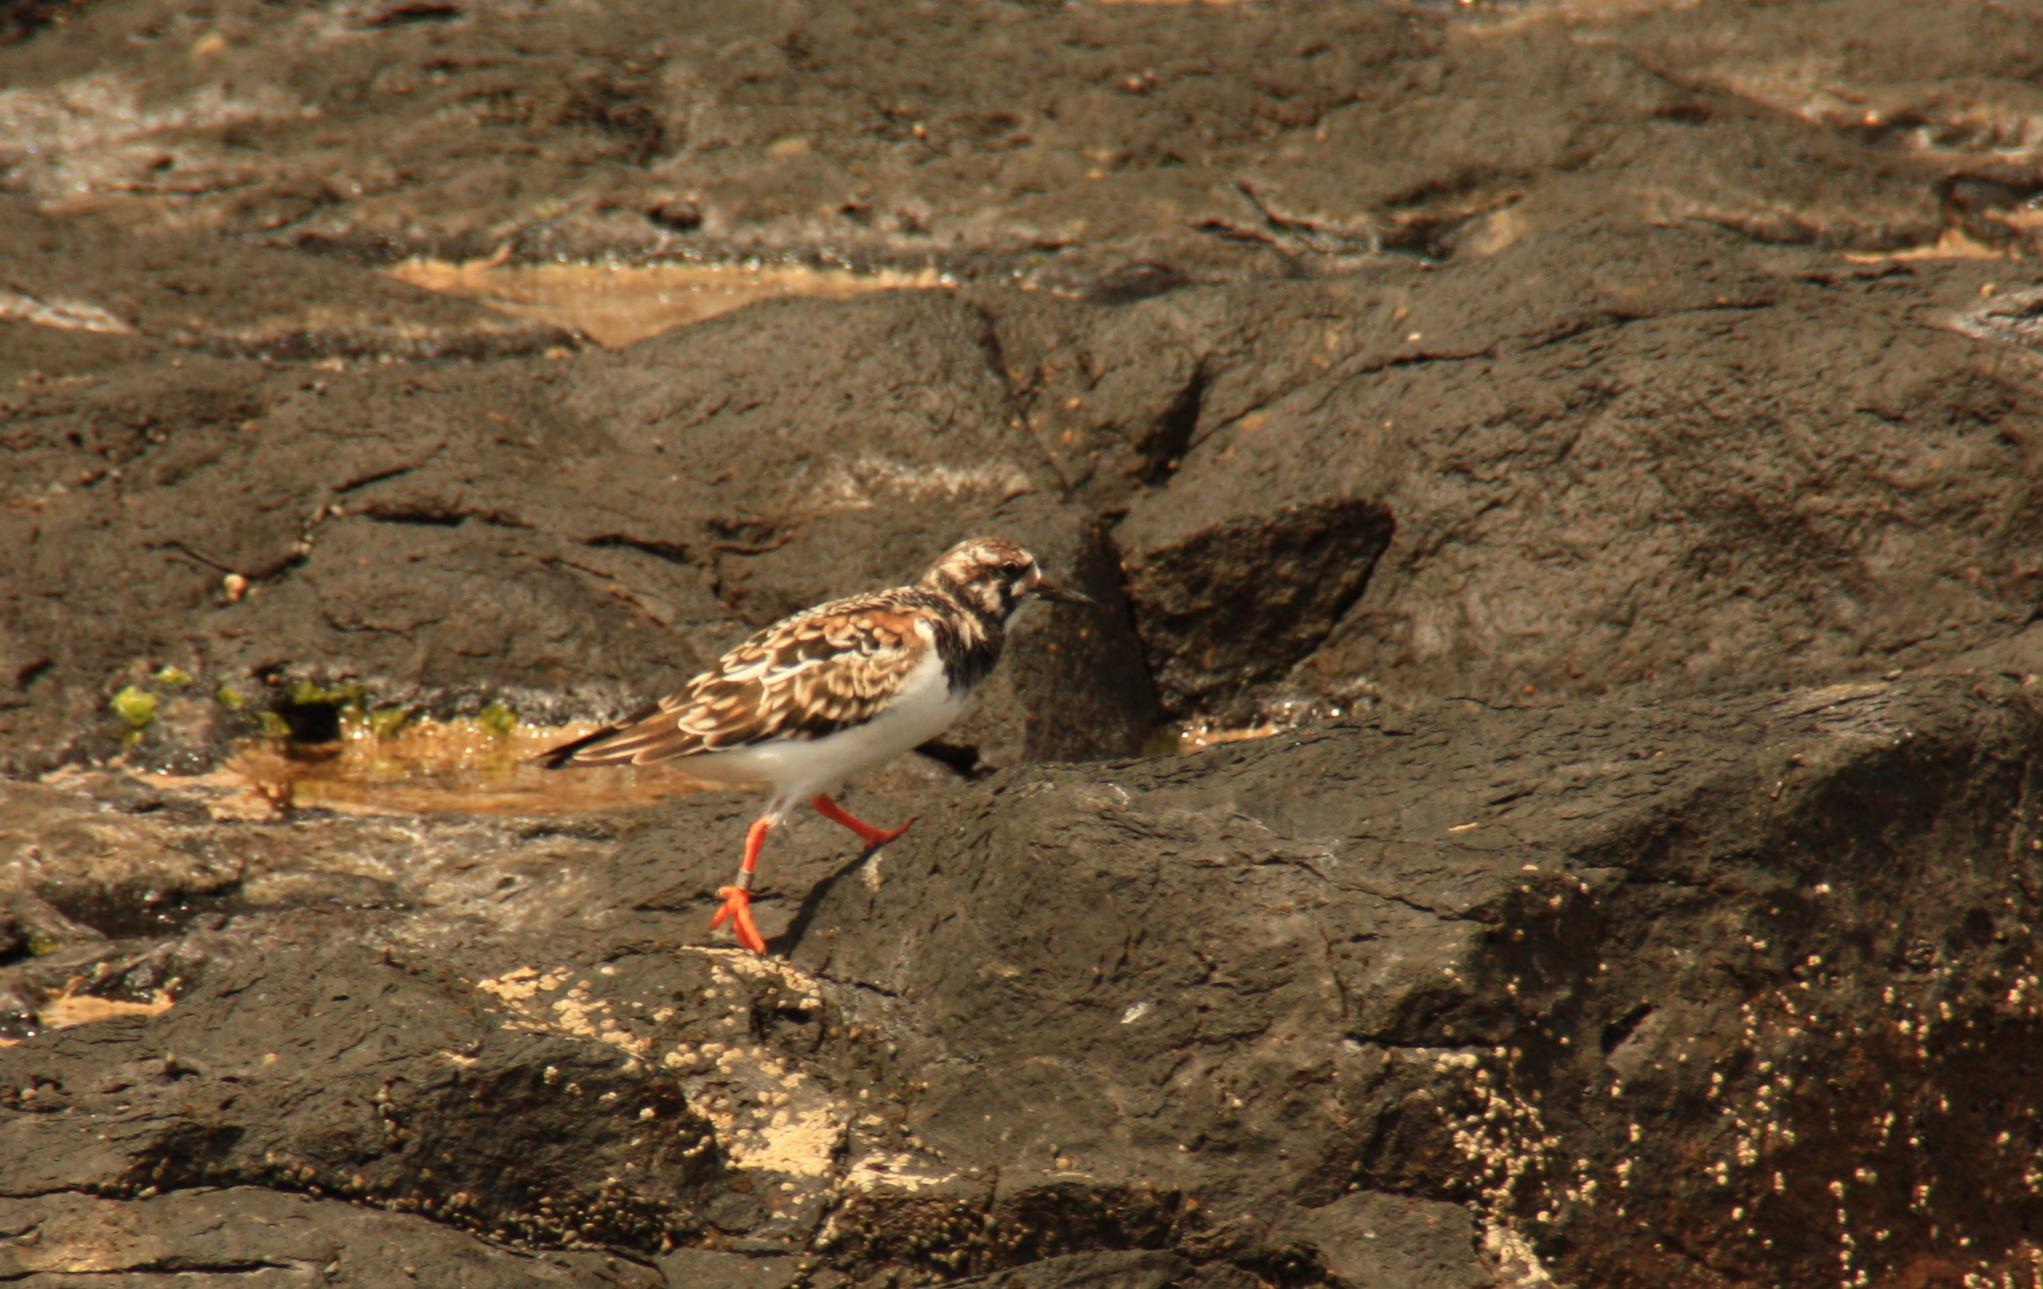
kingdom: Animalia
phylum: Chordata
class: Aves
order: Charadriiformes
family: Scolopacidae
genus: Arenaria
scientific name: Arenaria interpres
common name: Ruddy turnstone
